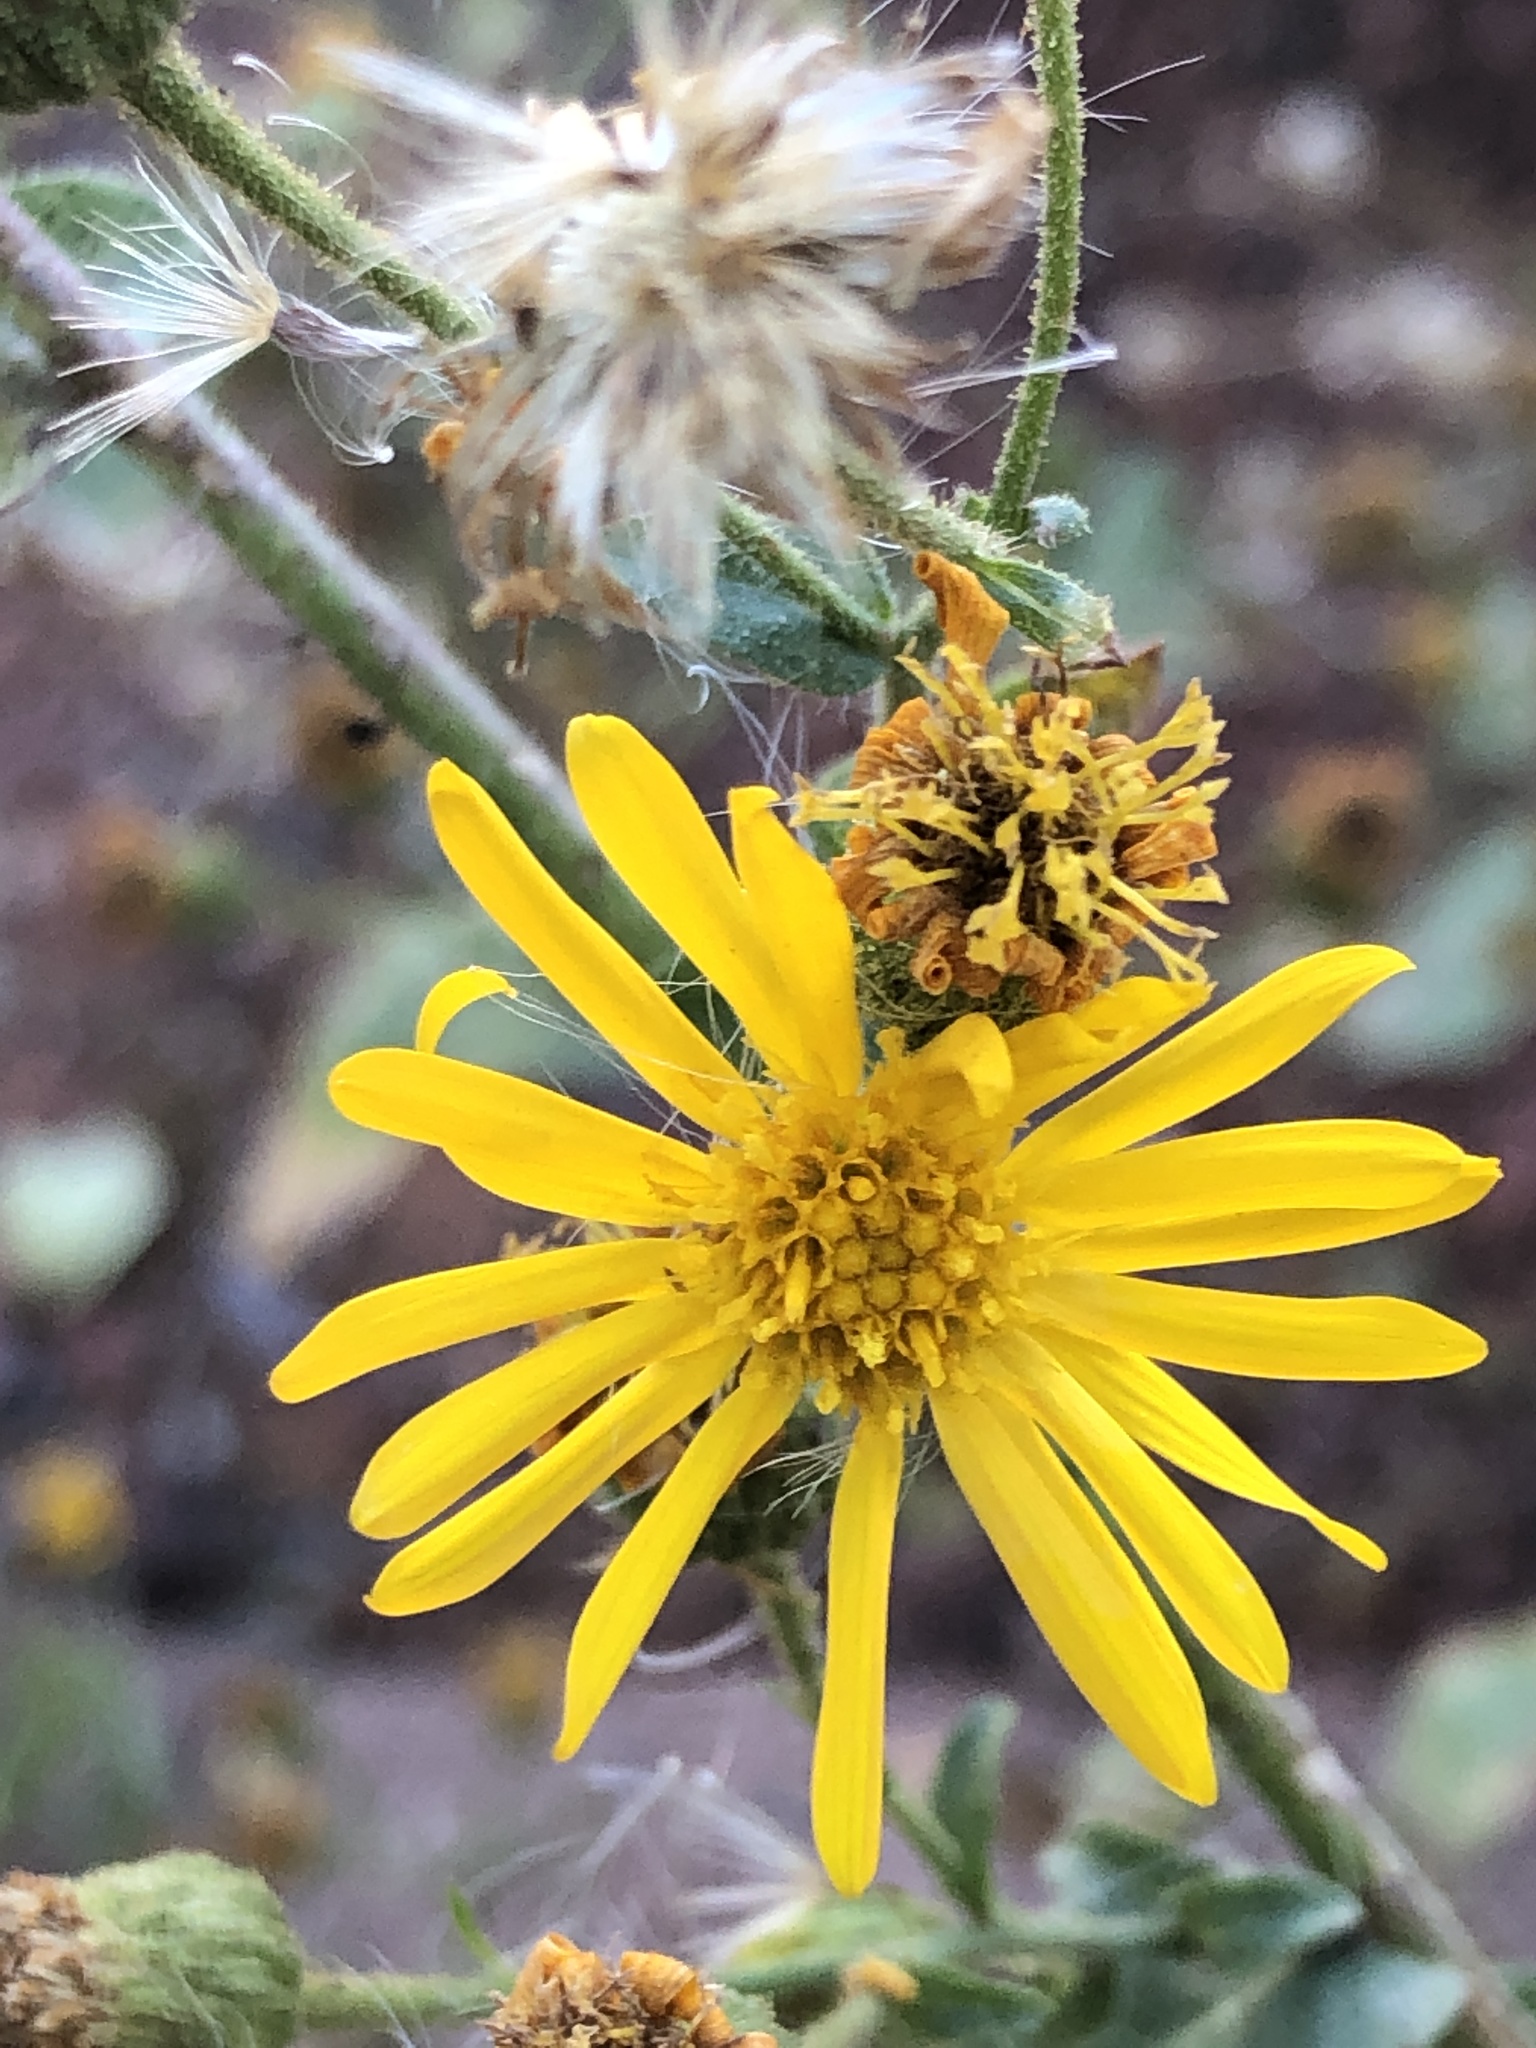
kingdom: Plantae
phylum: Tracheophyta
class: Magnoliopsida
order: Asterales
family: Asteraceae
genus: Heterotheca
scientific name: Heterotheca subaxillaris
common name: Camphorweed
